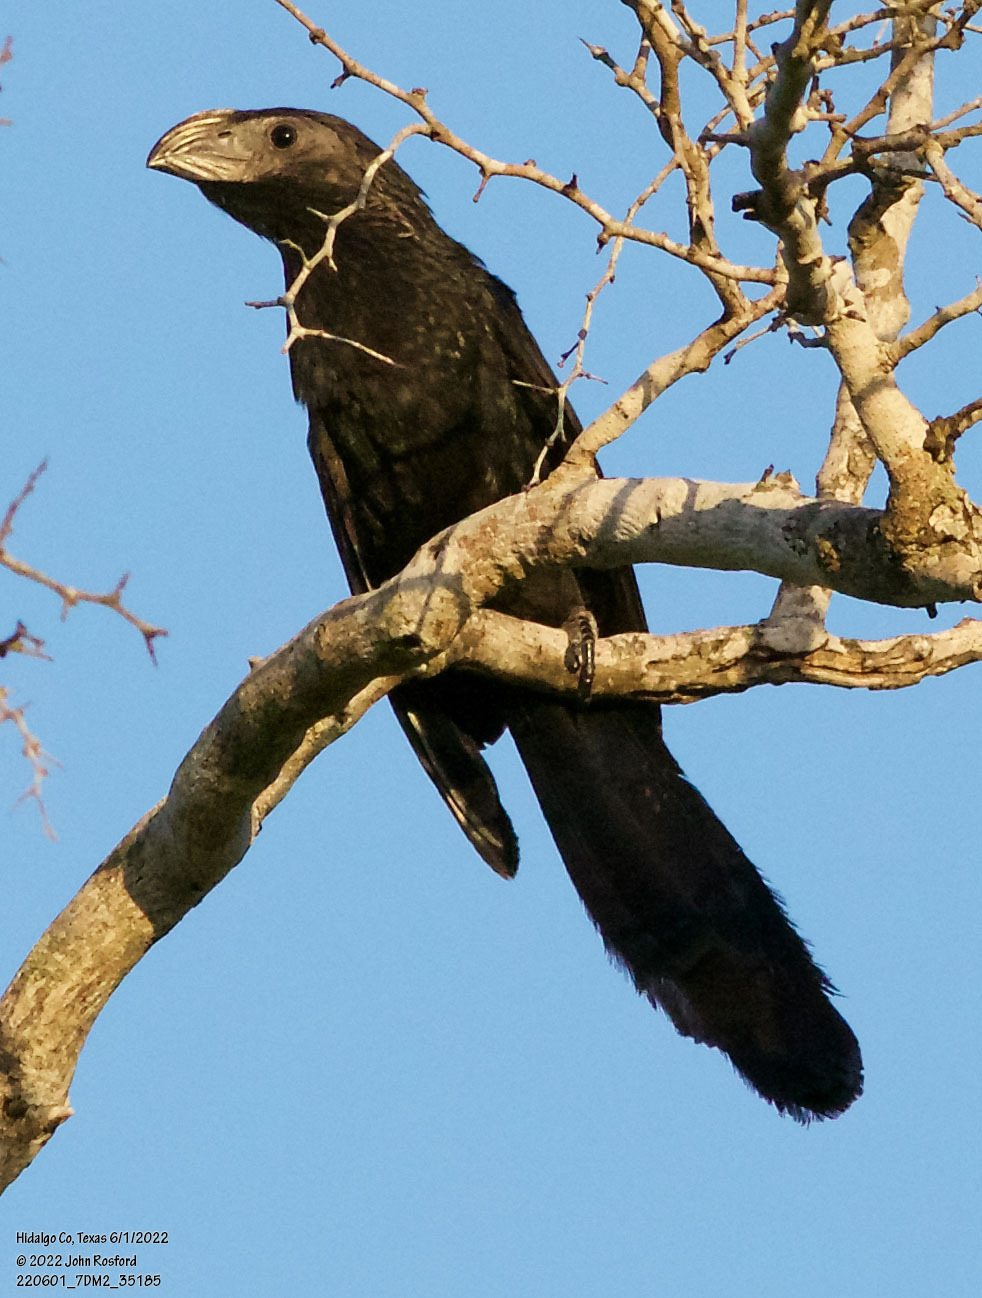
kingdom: Animalia
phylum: Chordata
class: Aves
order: Cuculiformes
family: Cuculidae
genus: Crotophaga
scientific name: Crotophaga sulcirostris
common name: Groove-billed ani
